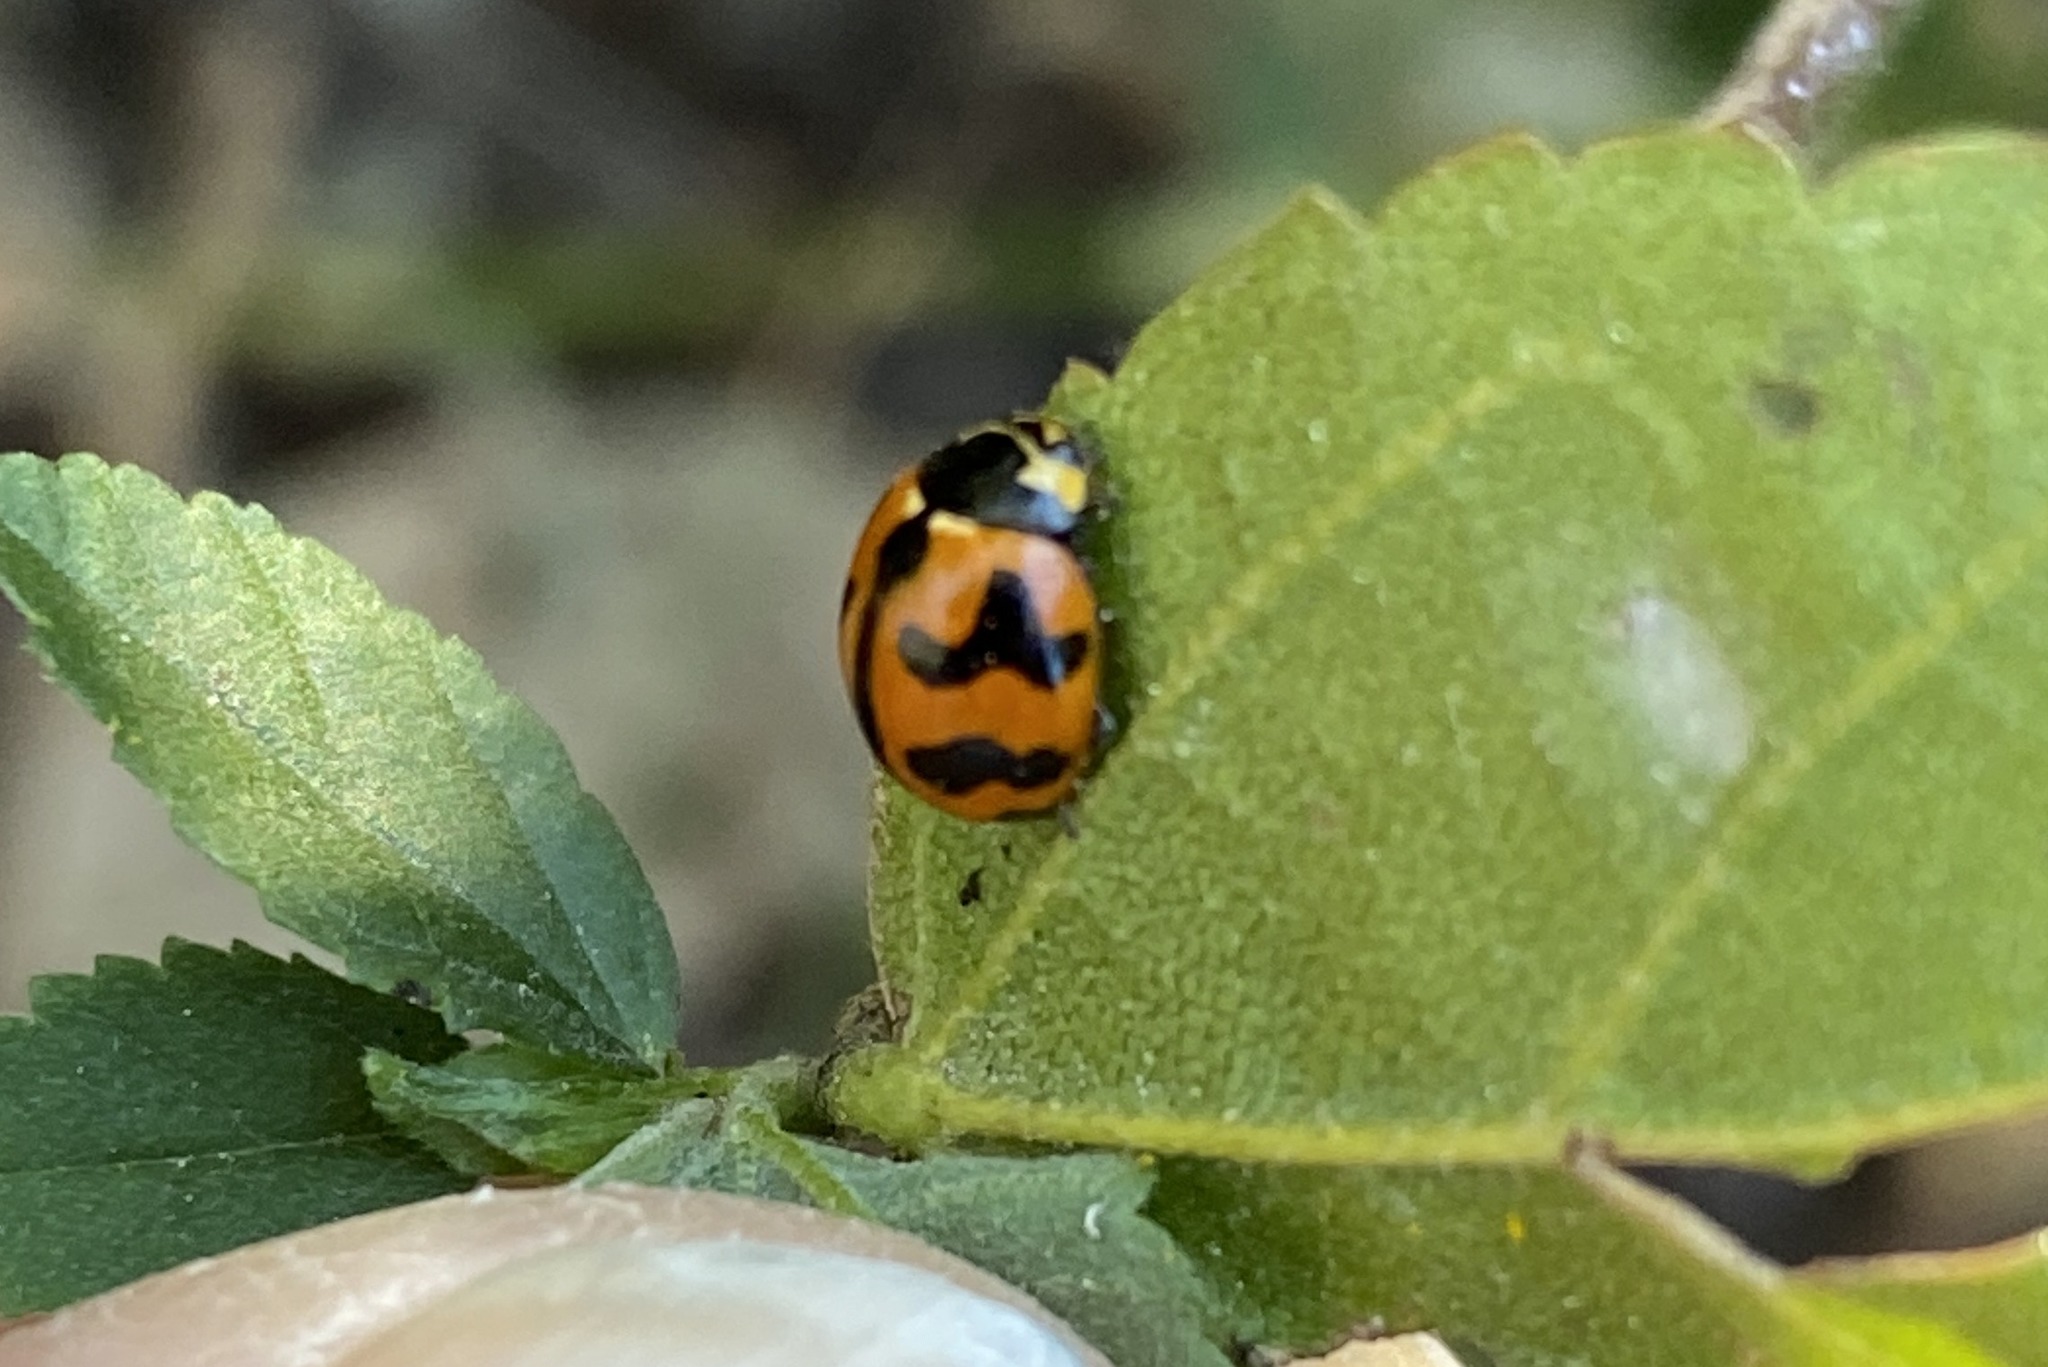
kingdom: Animalia
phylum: Arthropoda
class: Insecta
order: Coleoptera
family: Coccinellidae
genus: Coccinella
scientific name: Coccinella transversalis
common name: Transverse lady beetle
